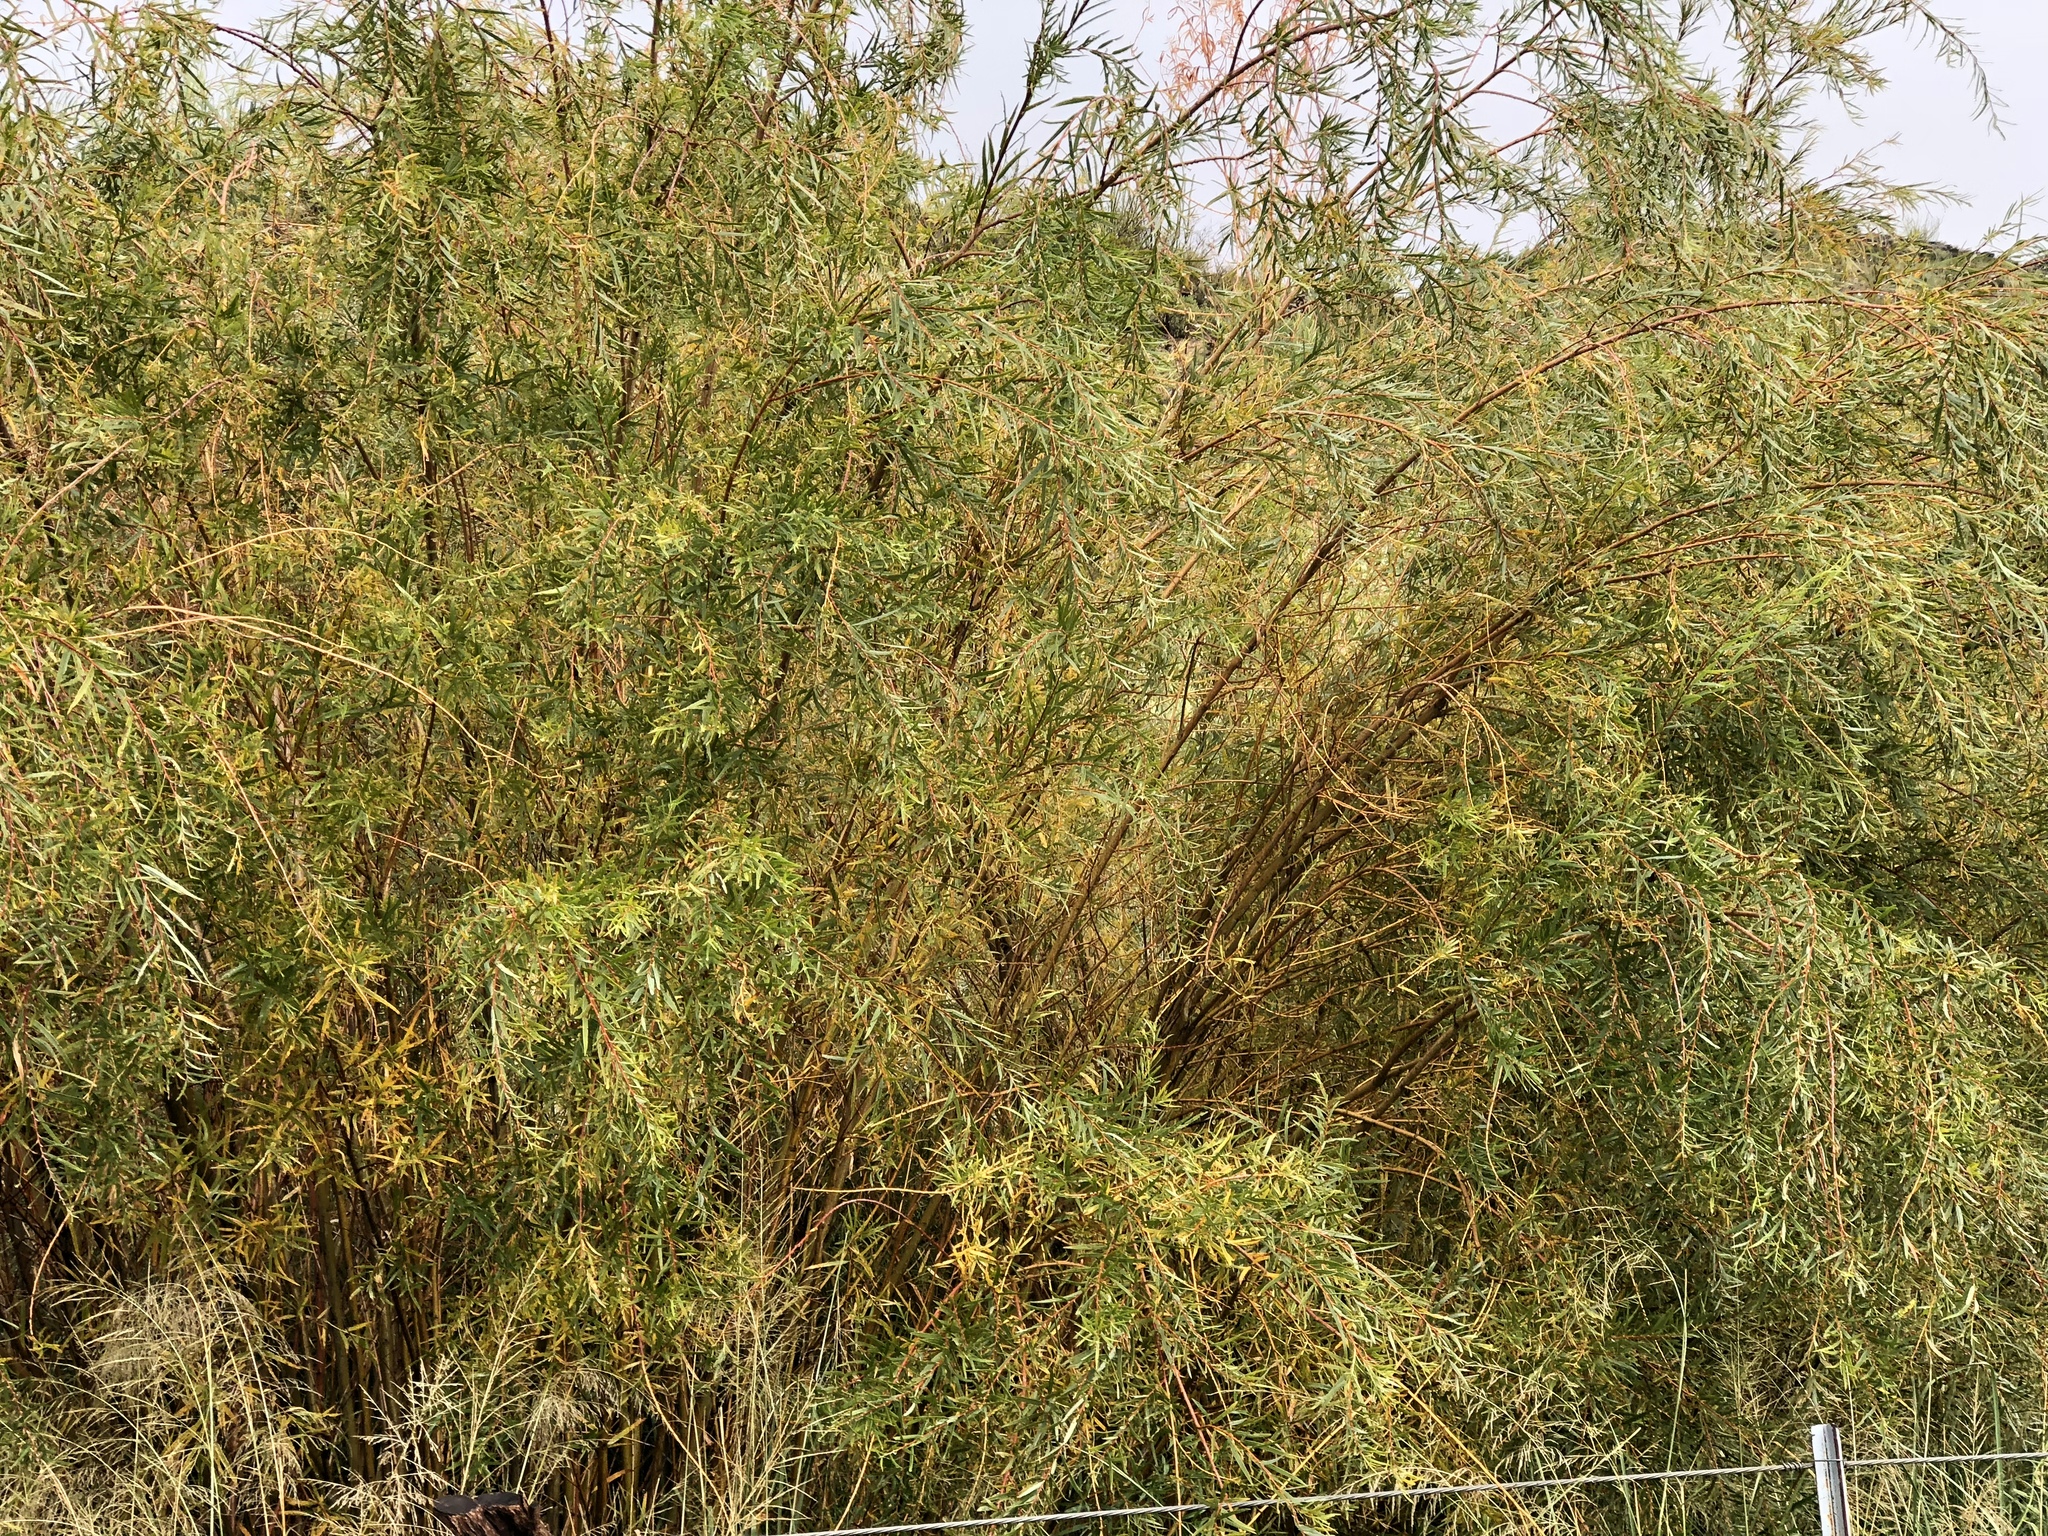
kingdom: Plantae
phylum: Tracheophyta
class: Magnoliopsida
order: Malpighiales
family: Salicaceae
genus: Salix
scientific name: Salix exigua
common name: Coyote willow
